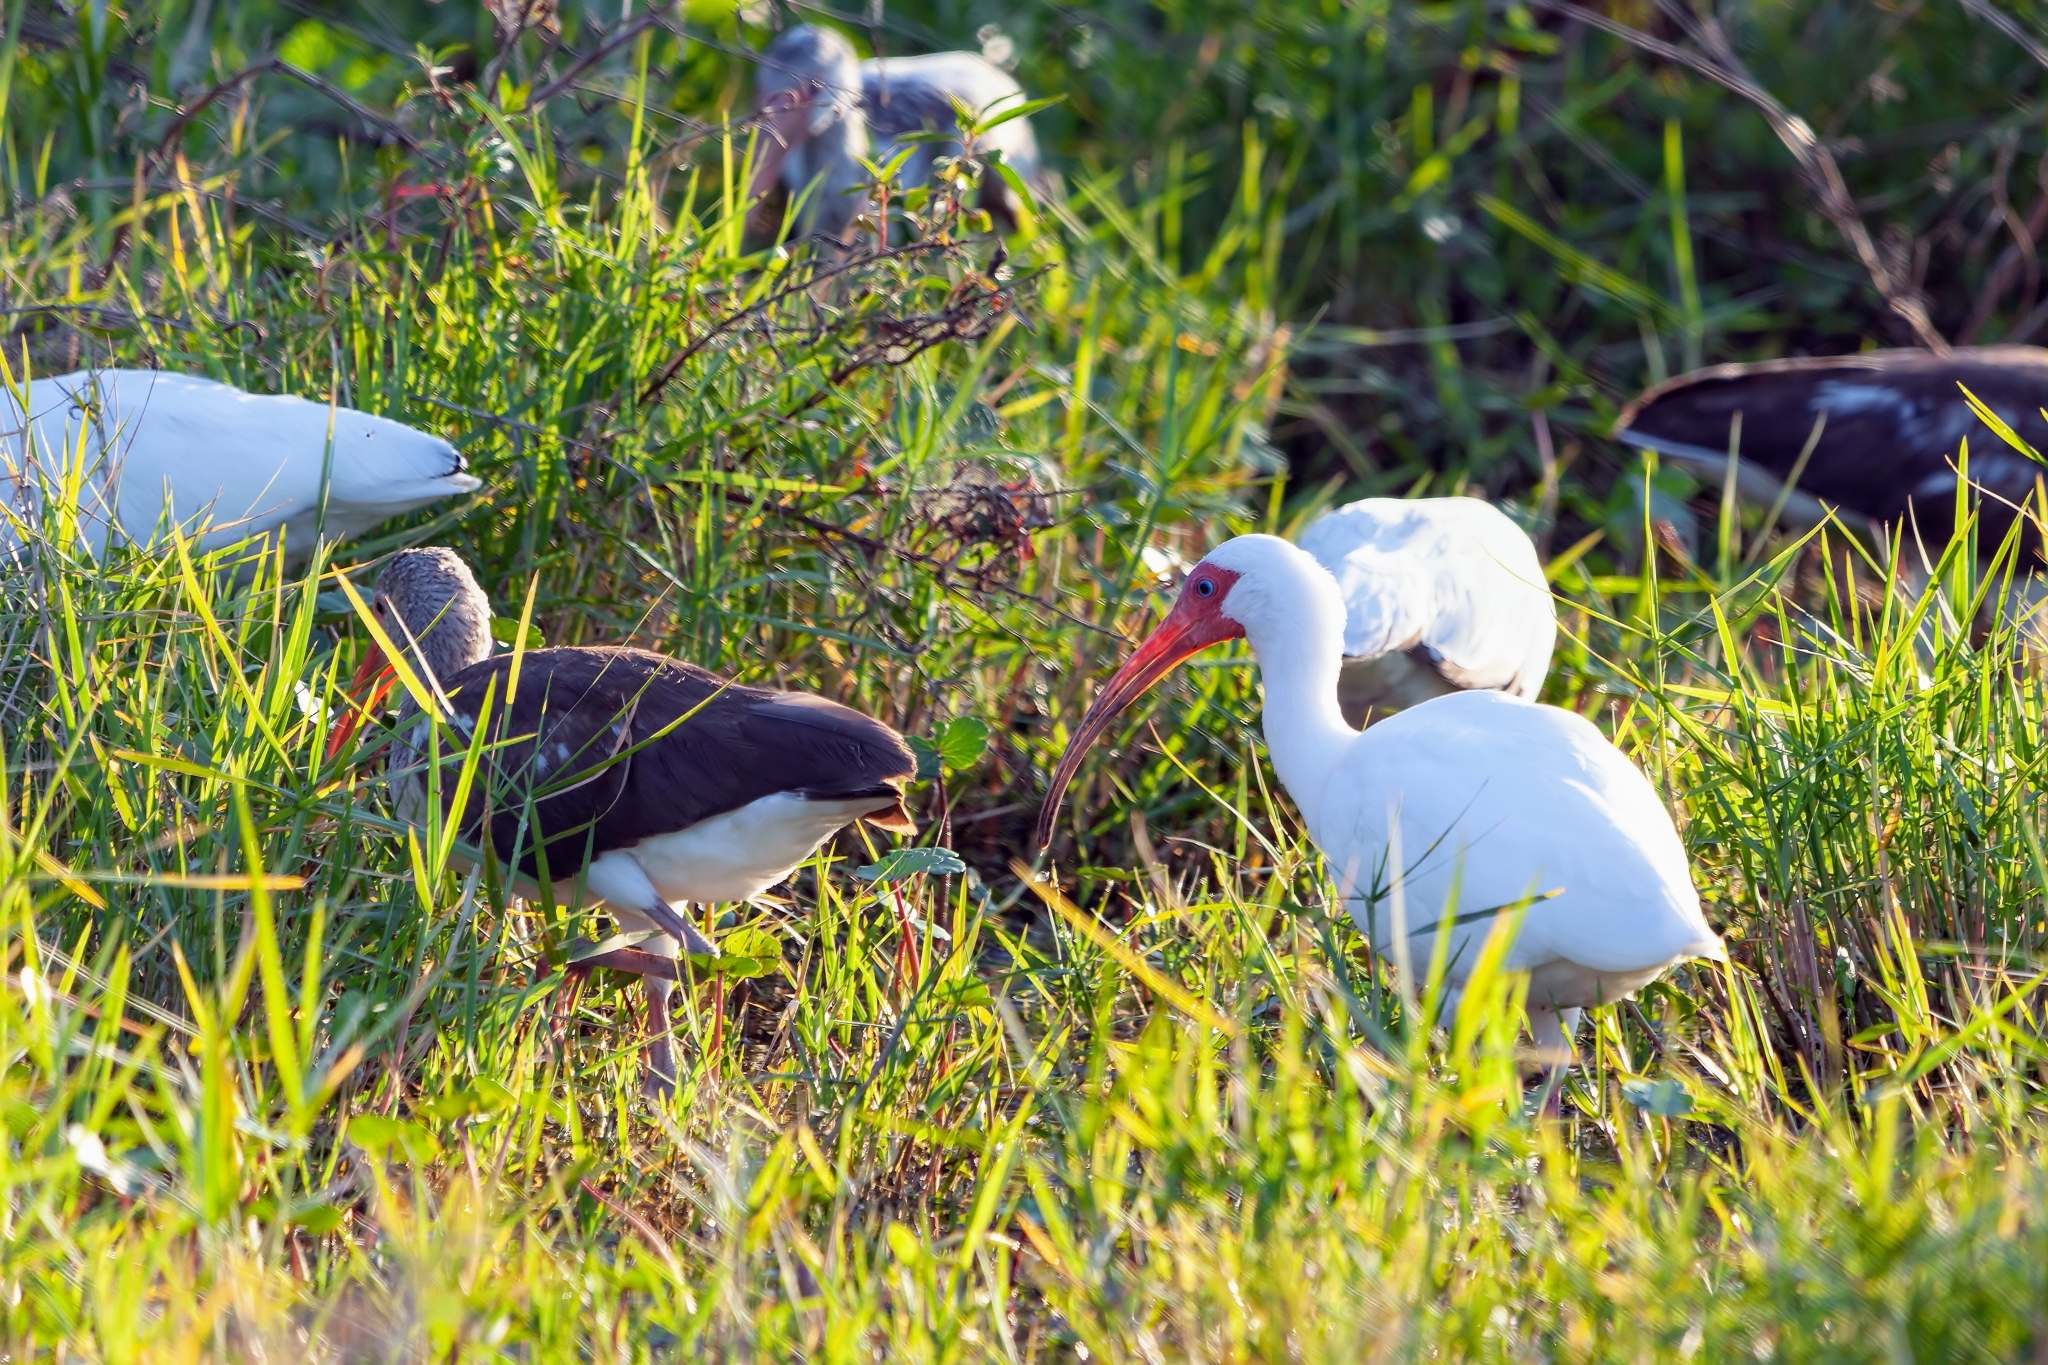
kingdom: Animalia
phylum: Chordata
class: Aves
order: Pelecaniformes
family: Threskiornithidae
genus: Eudocimus
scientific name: Eudocimus albus
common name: White ibis
